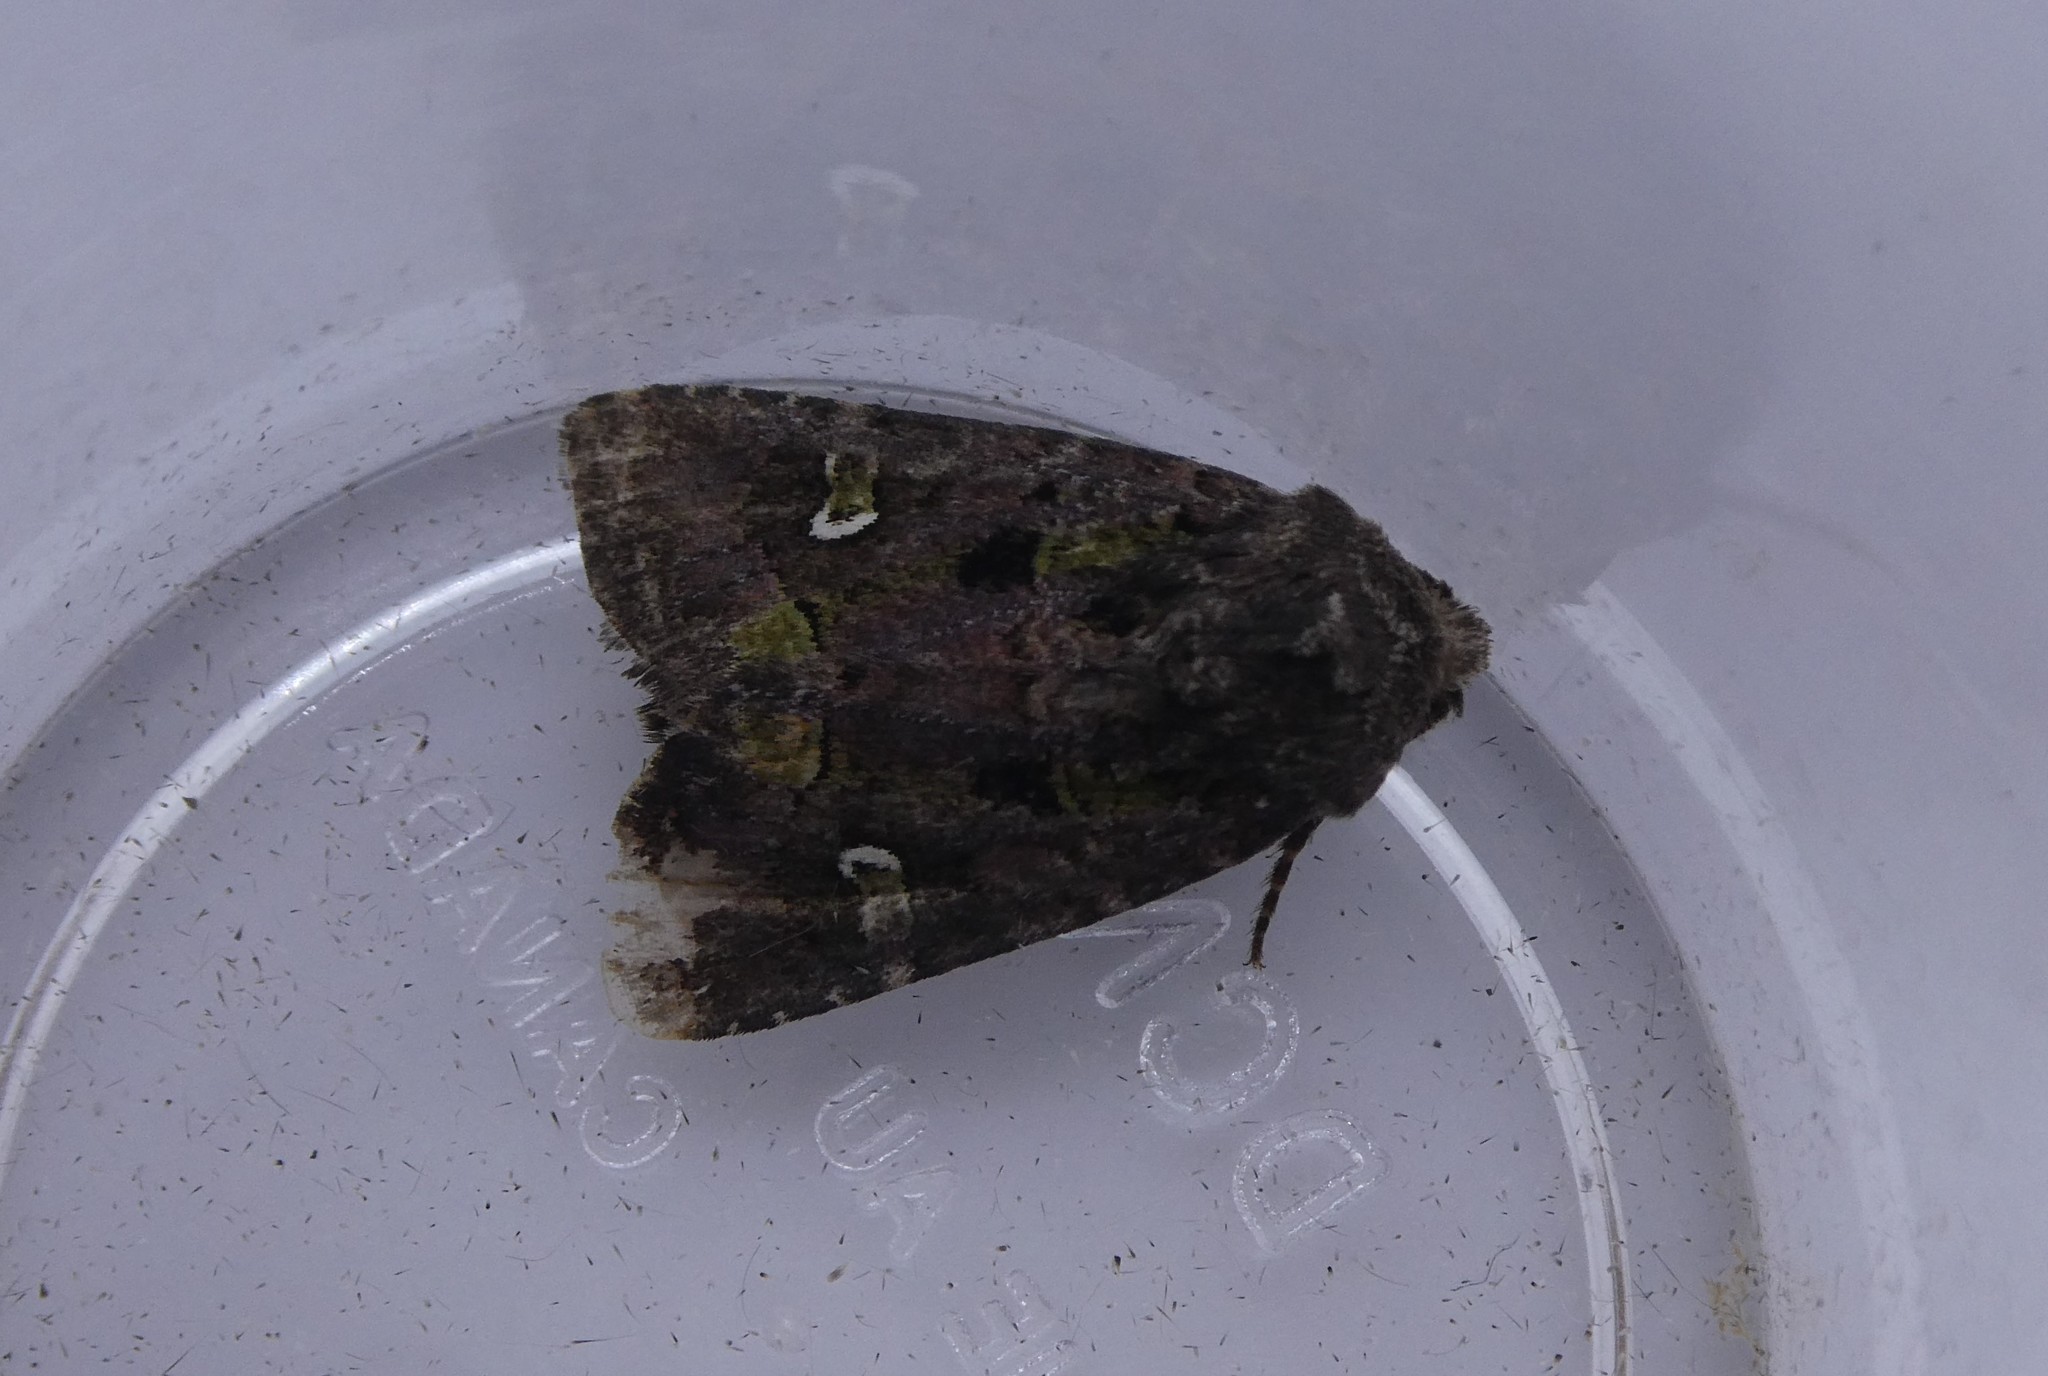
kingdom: Animalia
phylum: Arthropoda
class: Insecta
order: Lepidoptera
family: Noctuidae
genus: Lacinipolia
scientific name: Lacinipolia renigera
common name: Kidney-spotted minor
